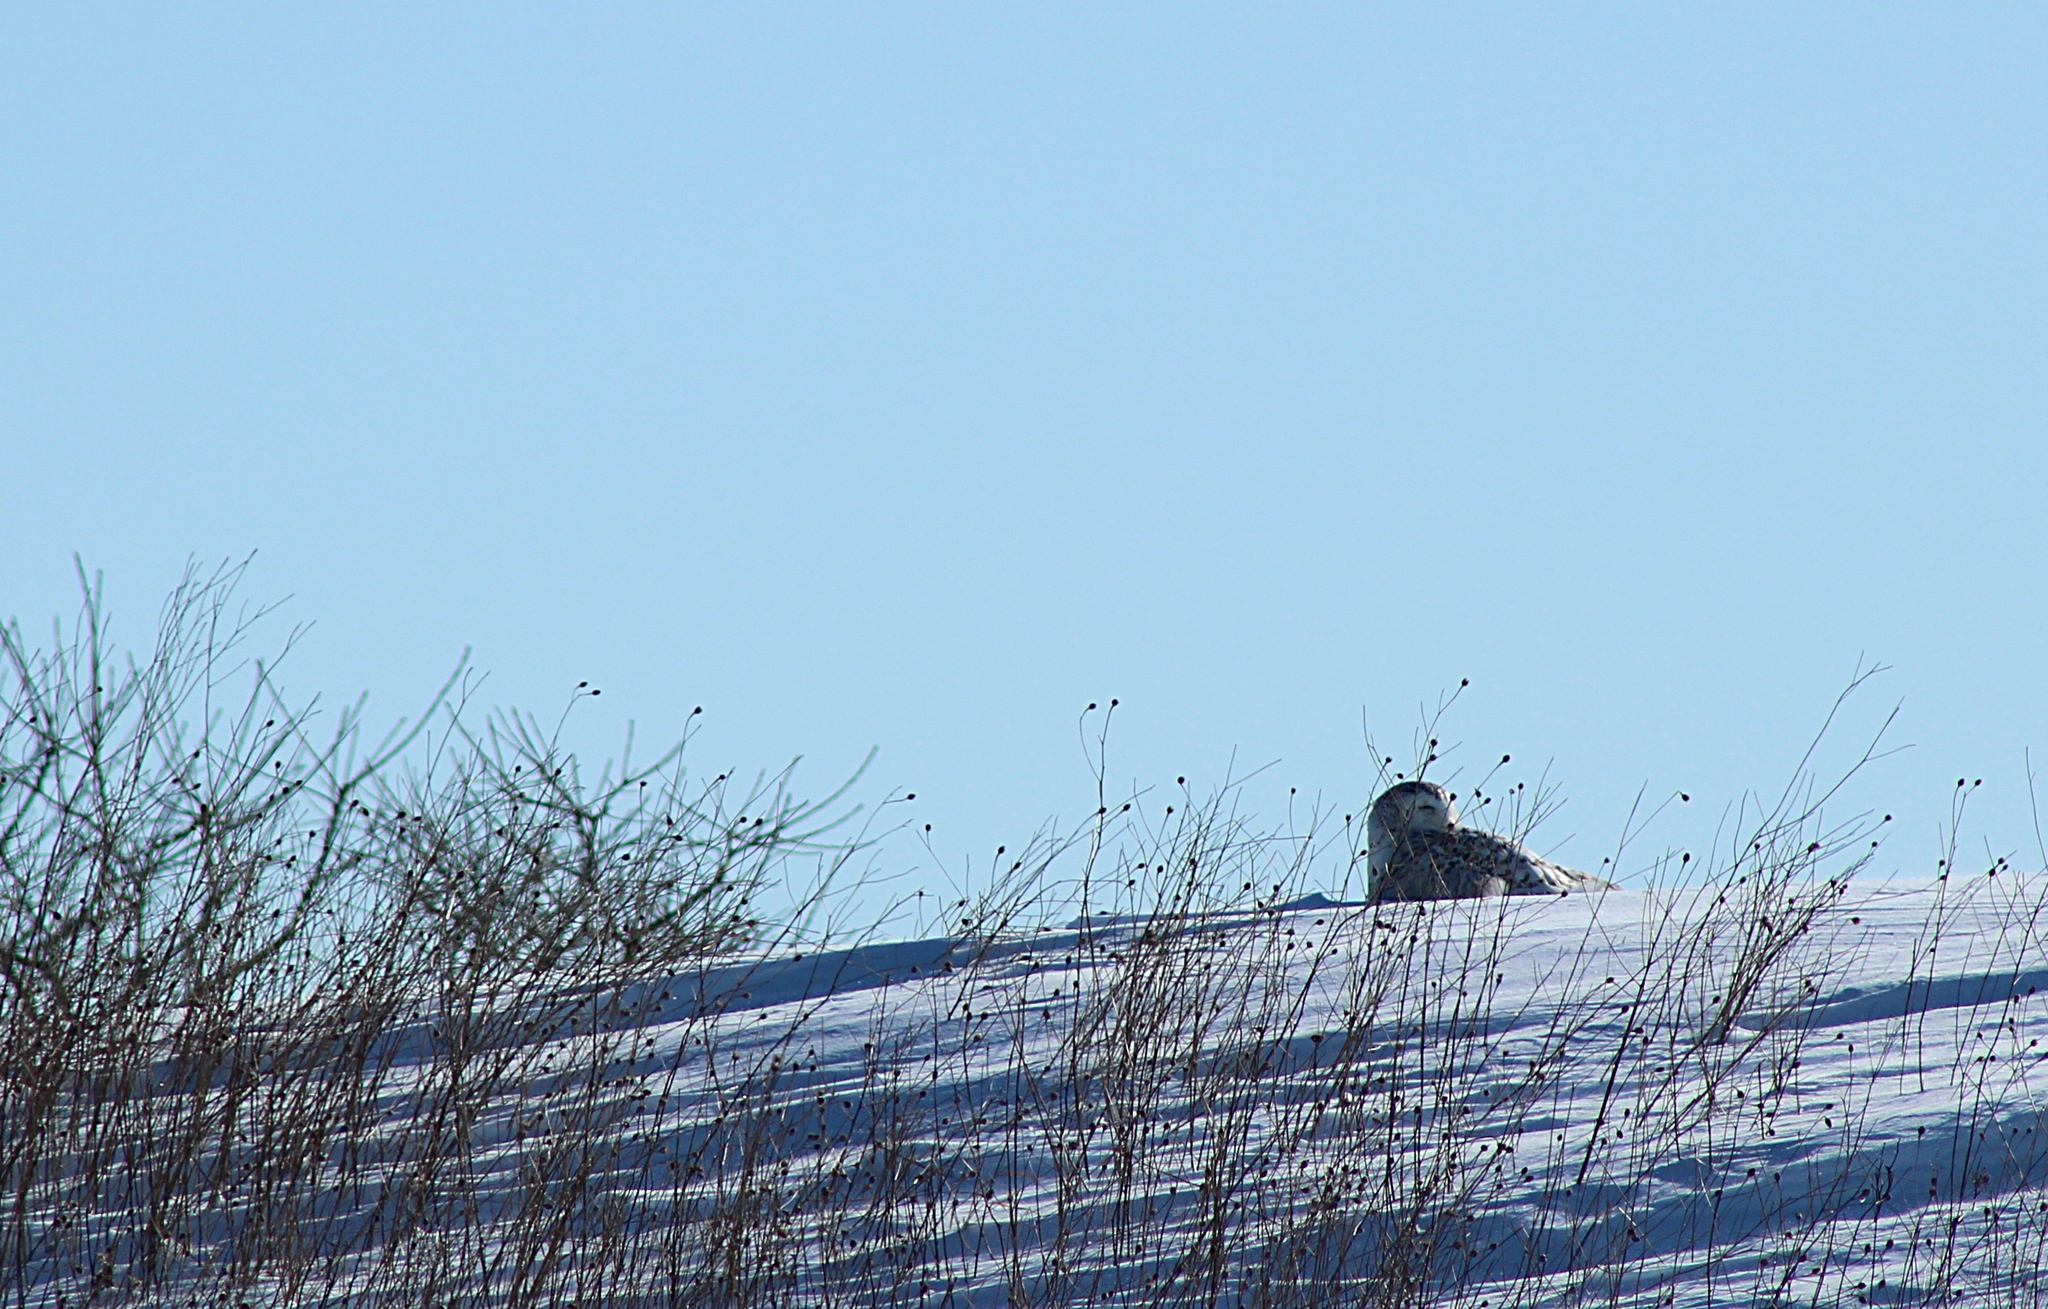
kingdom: Animalia
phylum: Chordata
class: Aves
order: Strigiformes
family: Strigidae
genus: Bubo
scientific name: Bubo scandiacus
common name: Snowy owl
